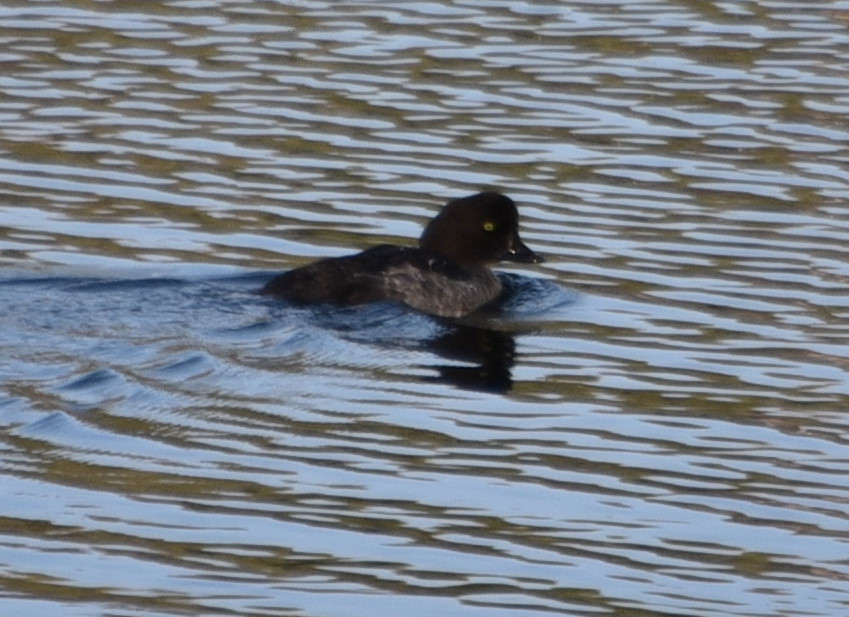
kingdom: Animalia
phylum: Chordata
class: Aves
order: Anseriformes
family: Anatidae
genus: Bucephala
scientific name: Bucephala clangula
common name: Common goldeneye
